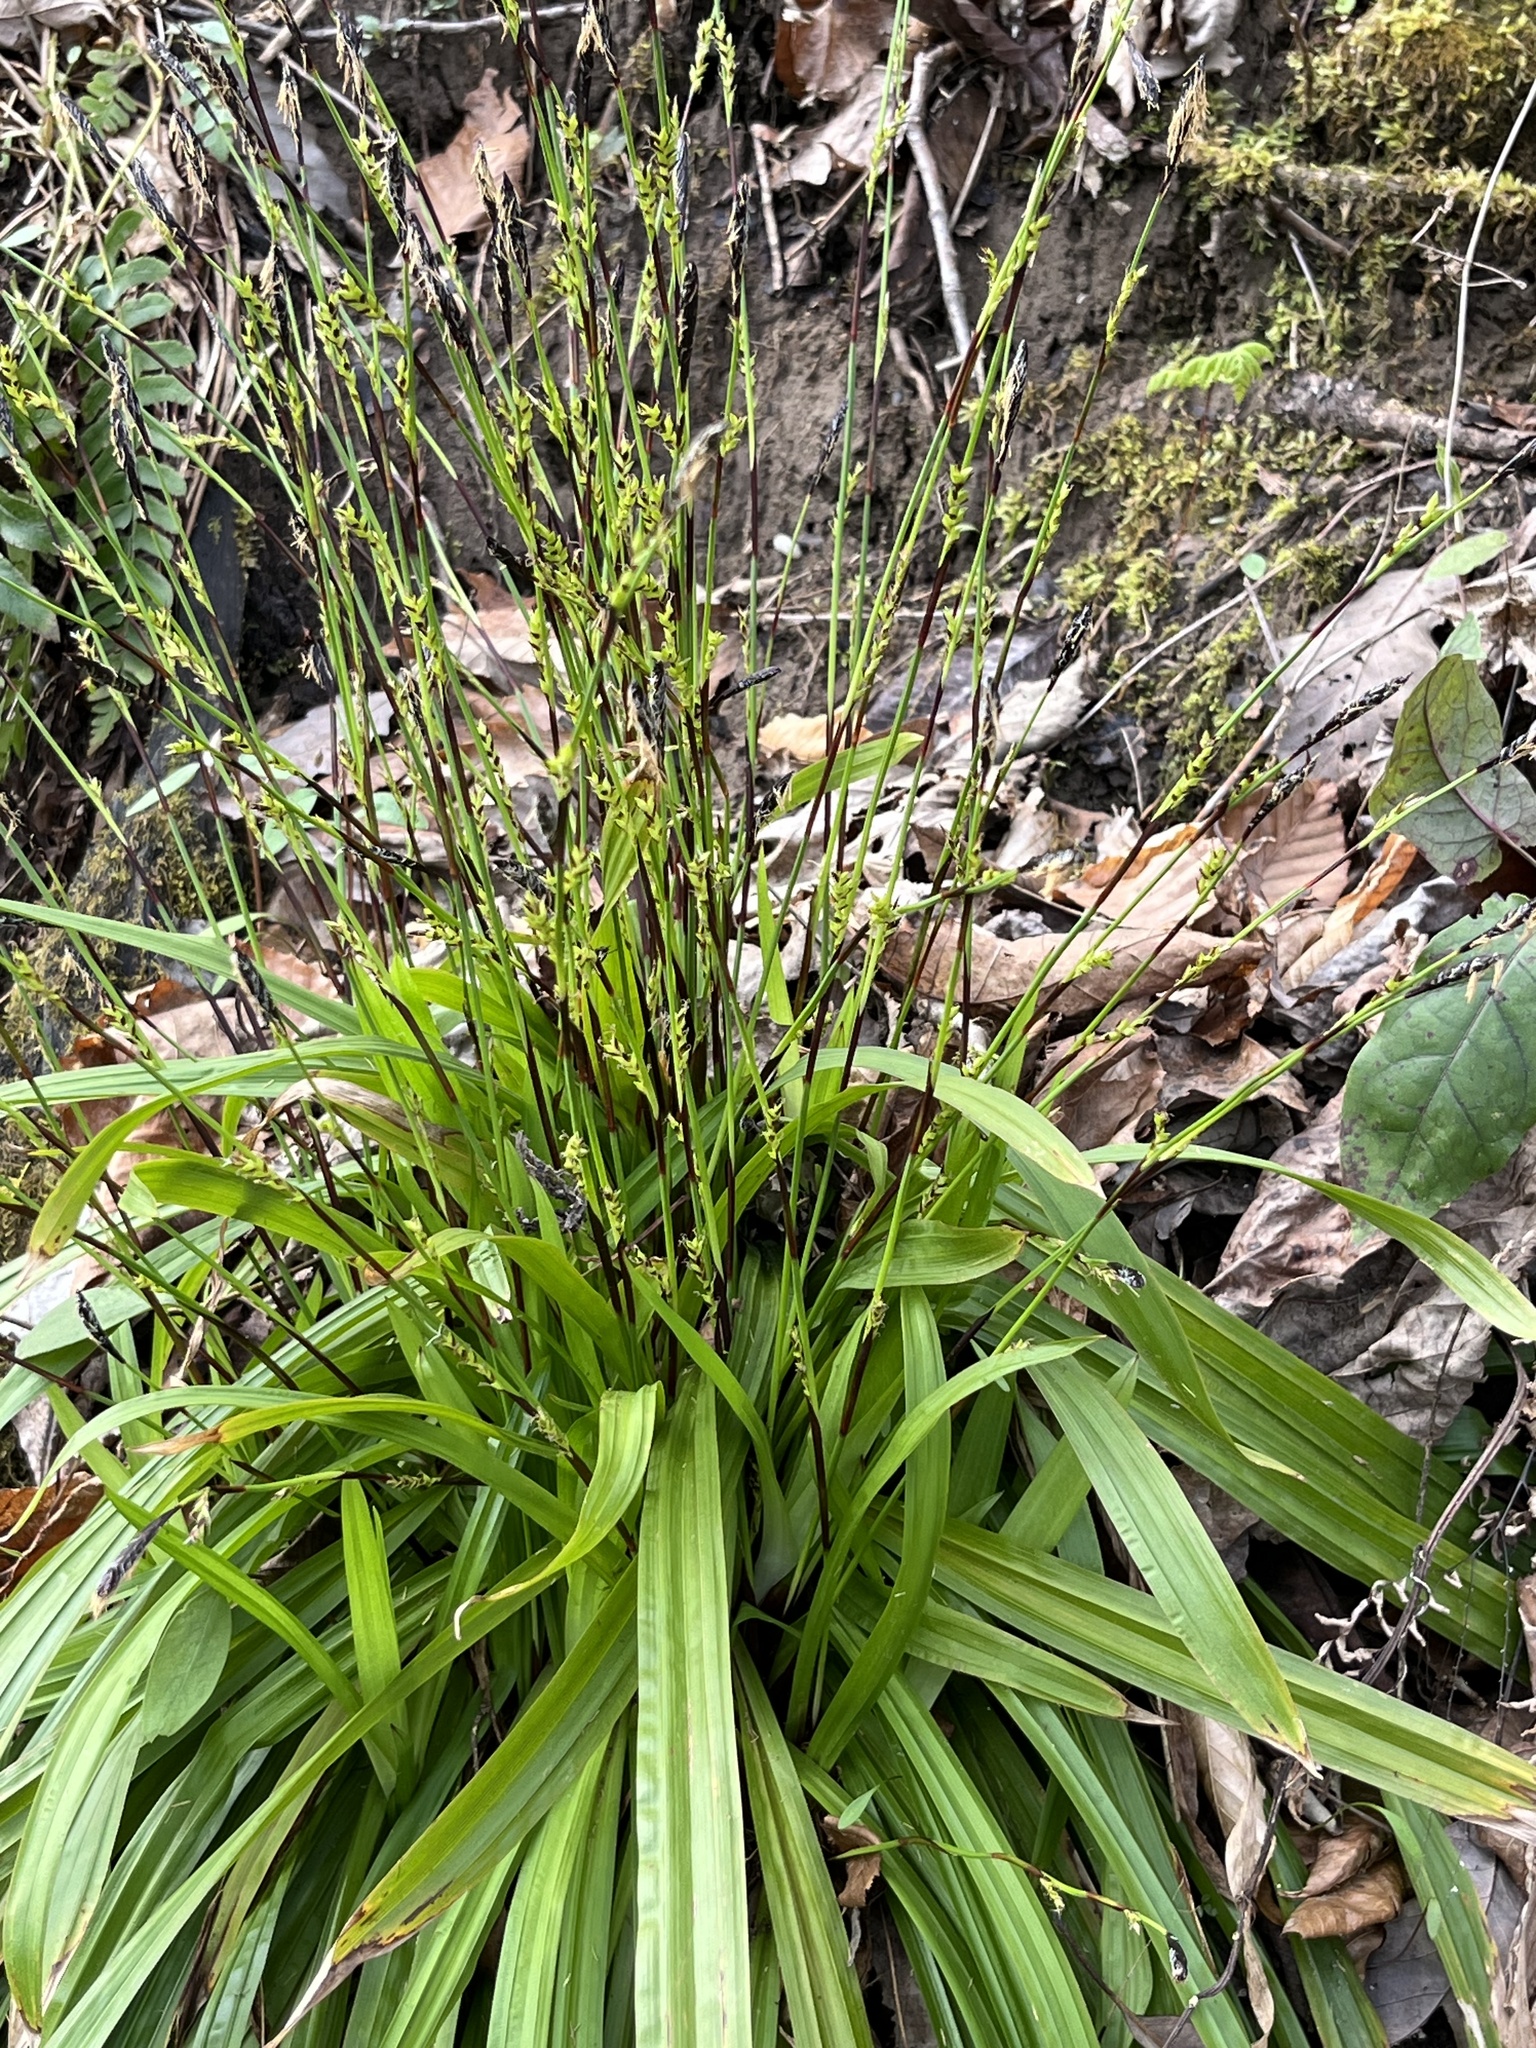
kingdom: Plantae
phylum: Tracheophyta
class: Liliopsida
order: Poales
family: Cyperaceae
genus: Carex
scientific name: Carex plantaginea
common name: Plantain-leaved sedge
